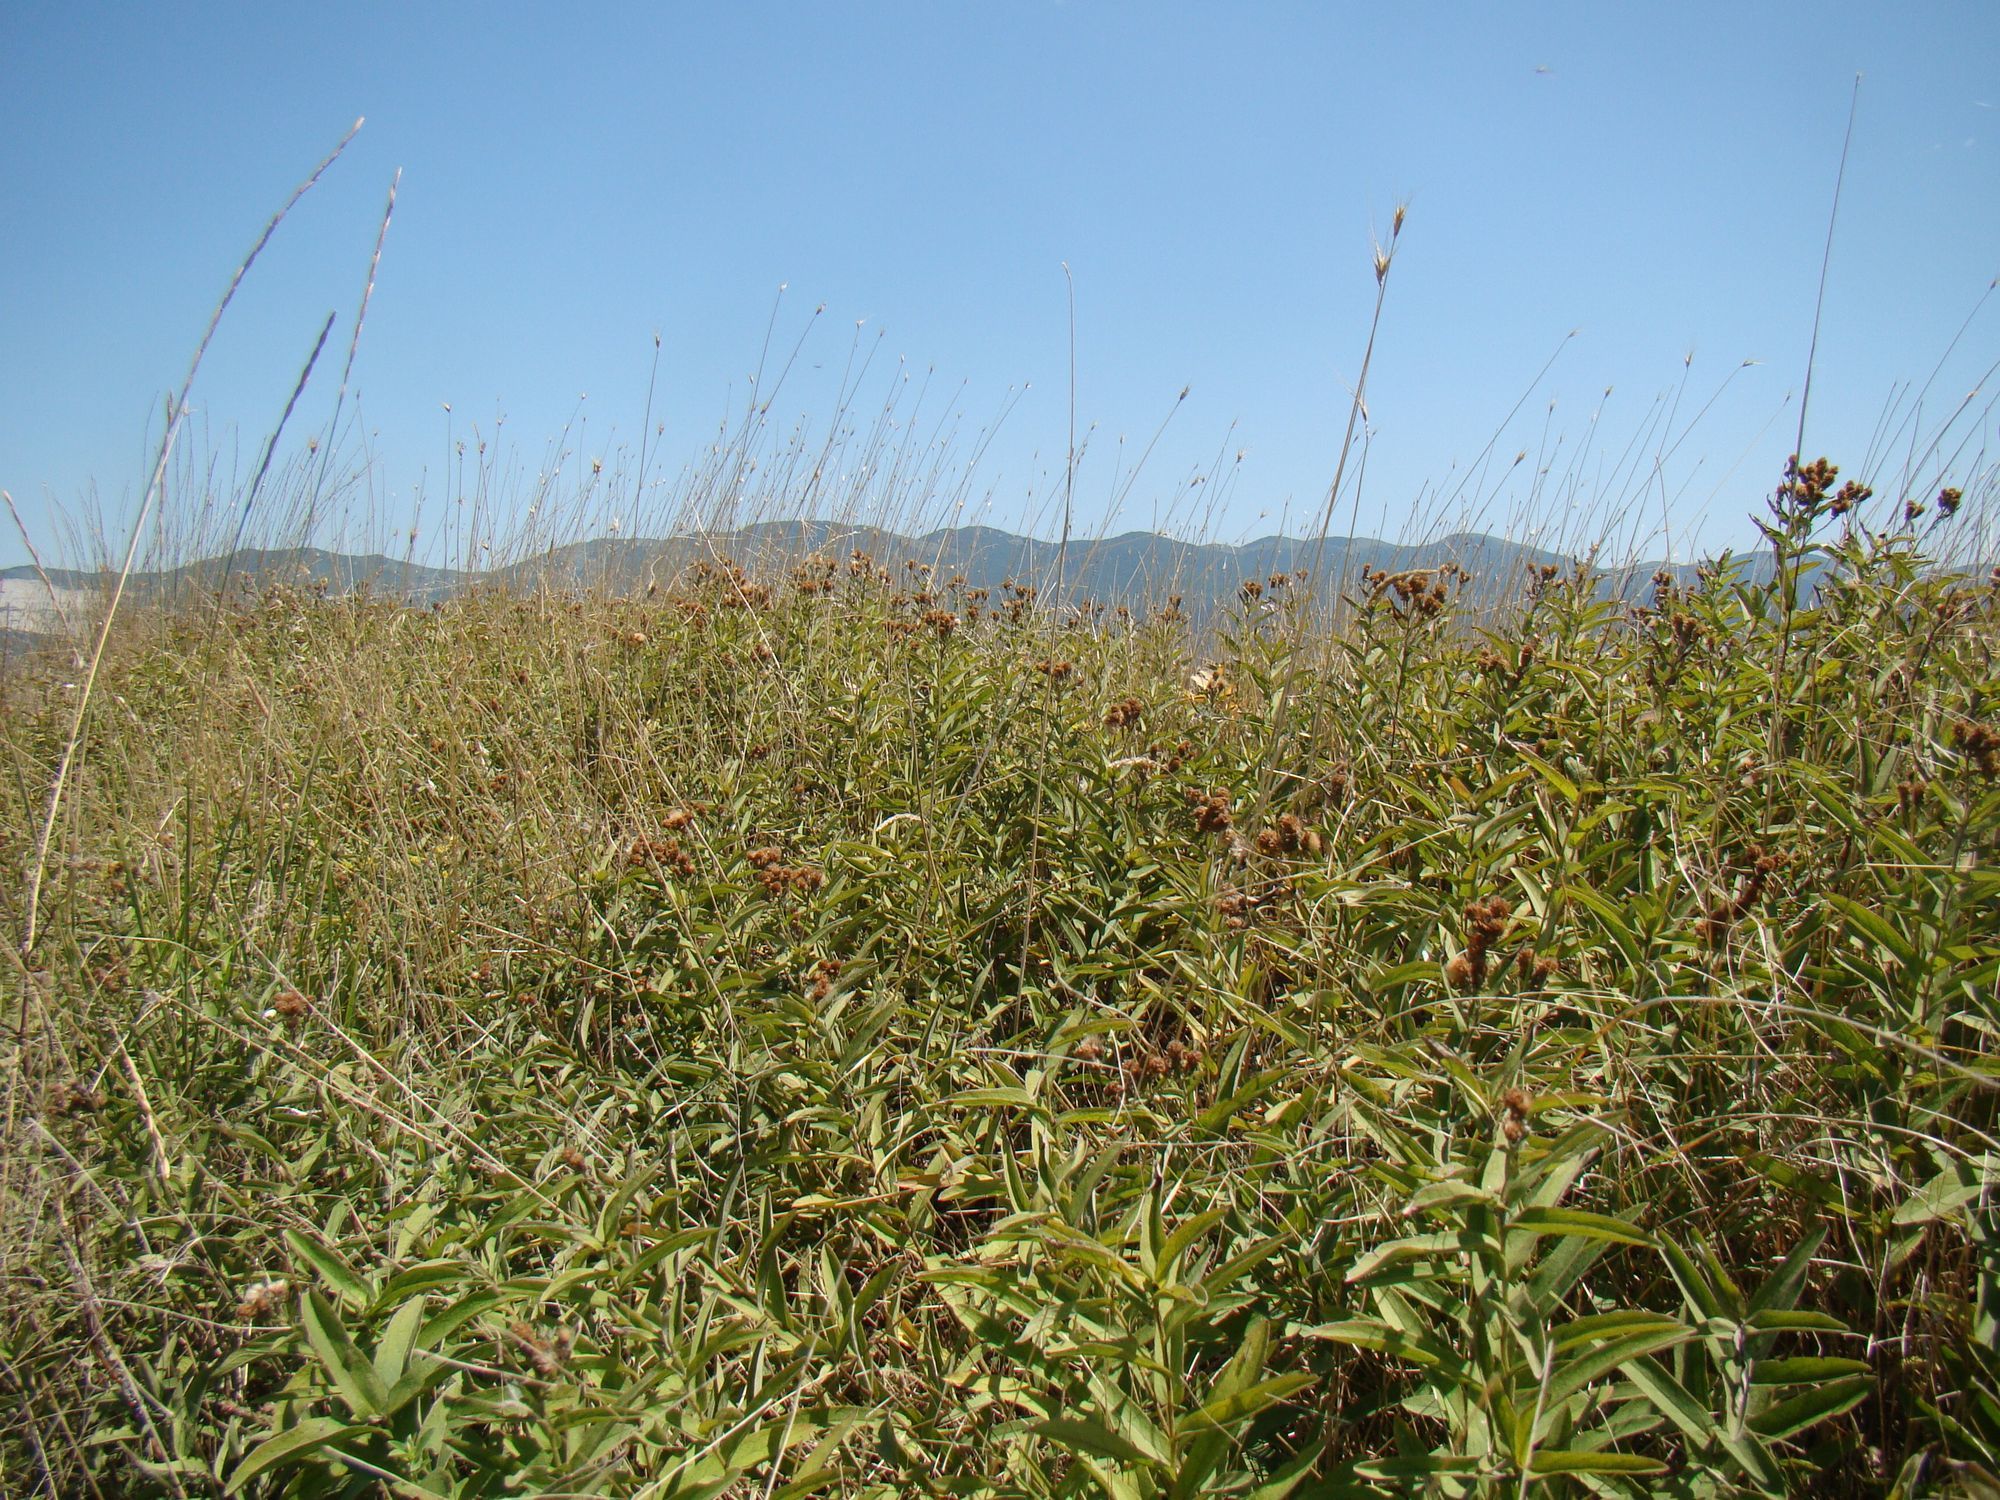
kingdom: Plantae
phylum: Tracheophyta
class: Magnoliopsida
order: Asterales
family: Asteraceae
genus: Pentanema
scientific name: Pentanema germanicum
